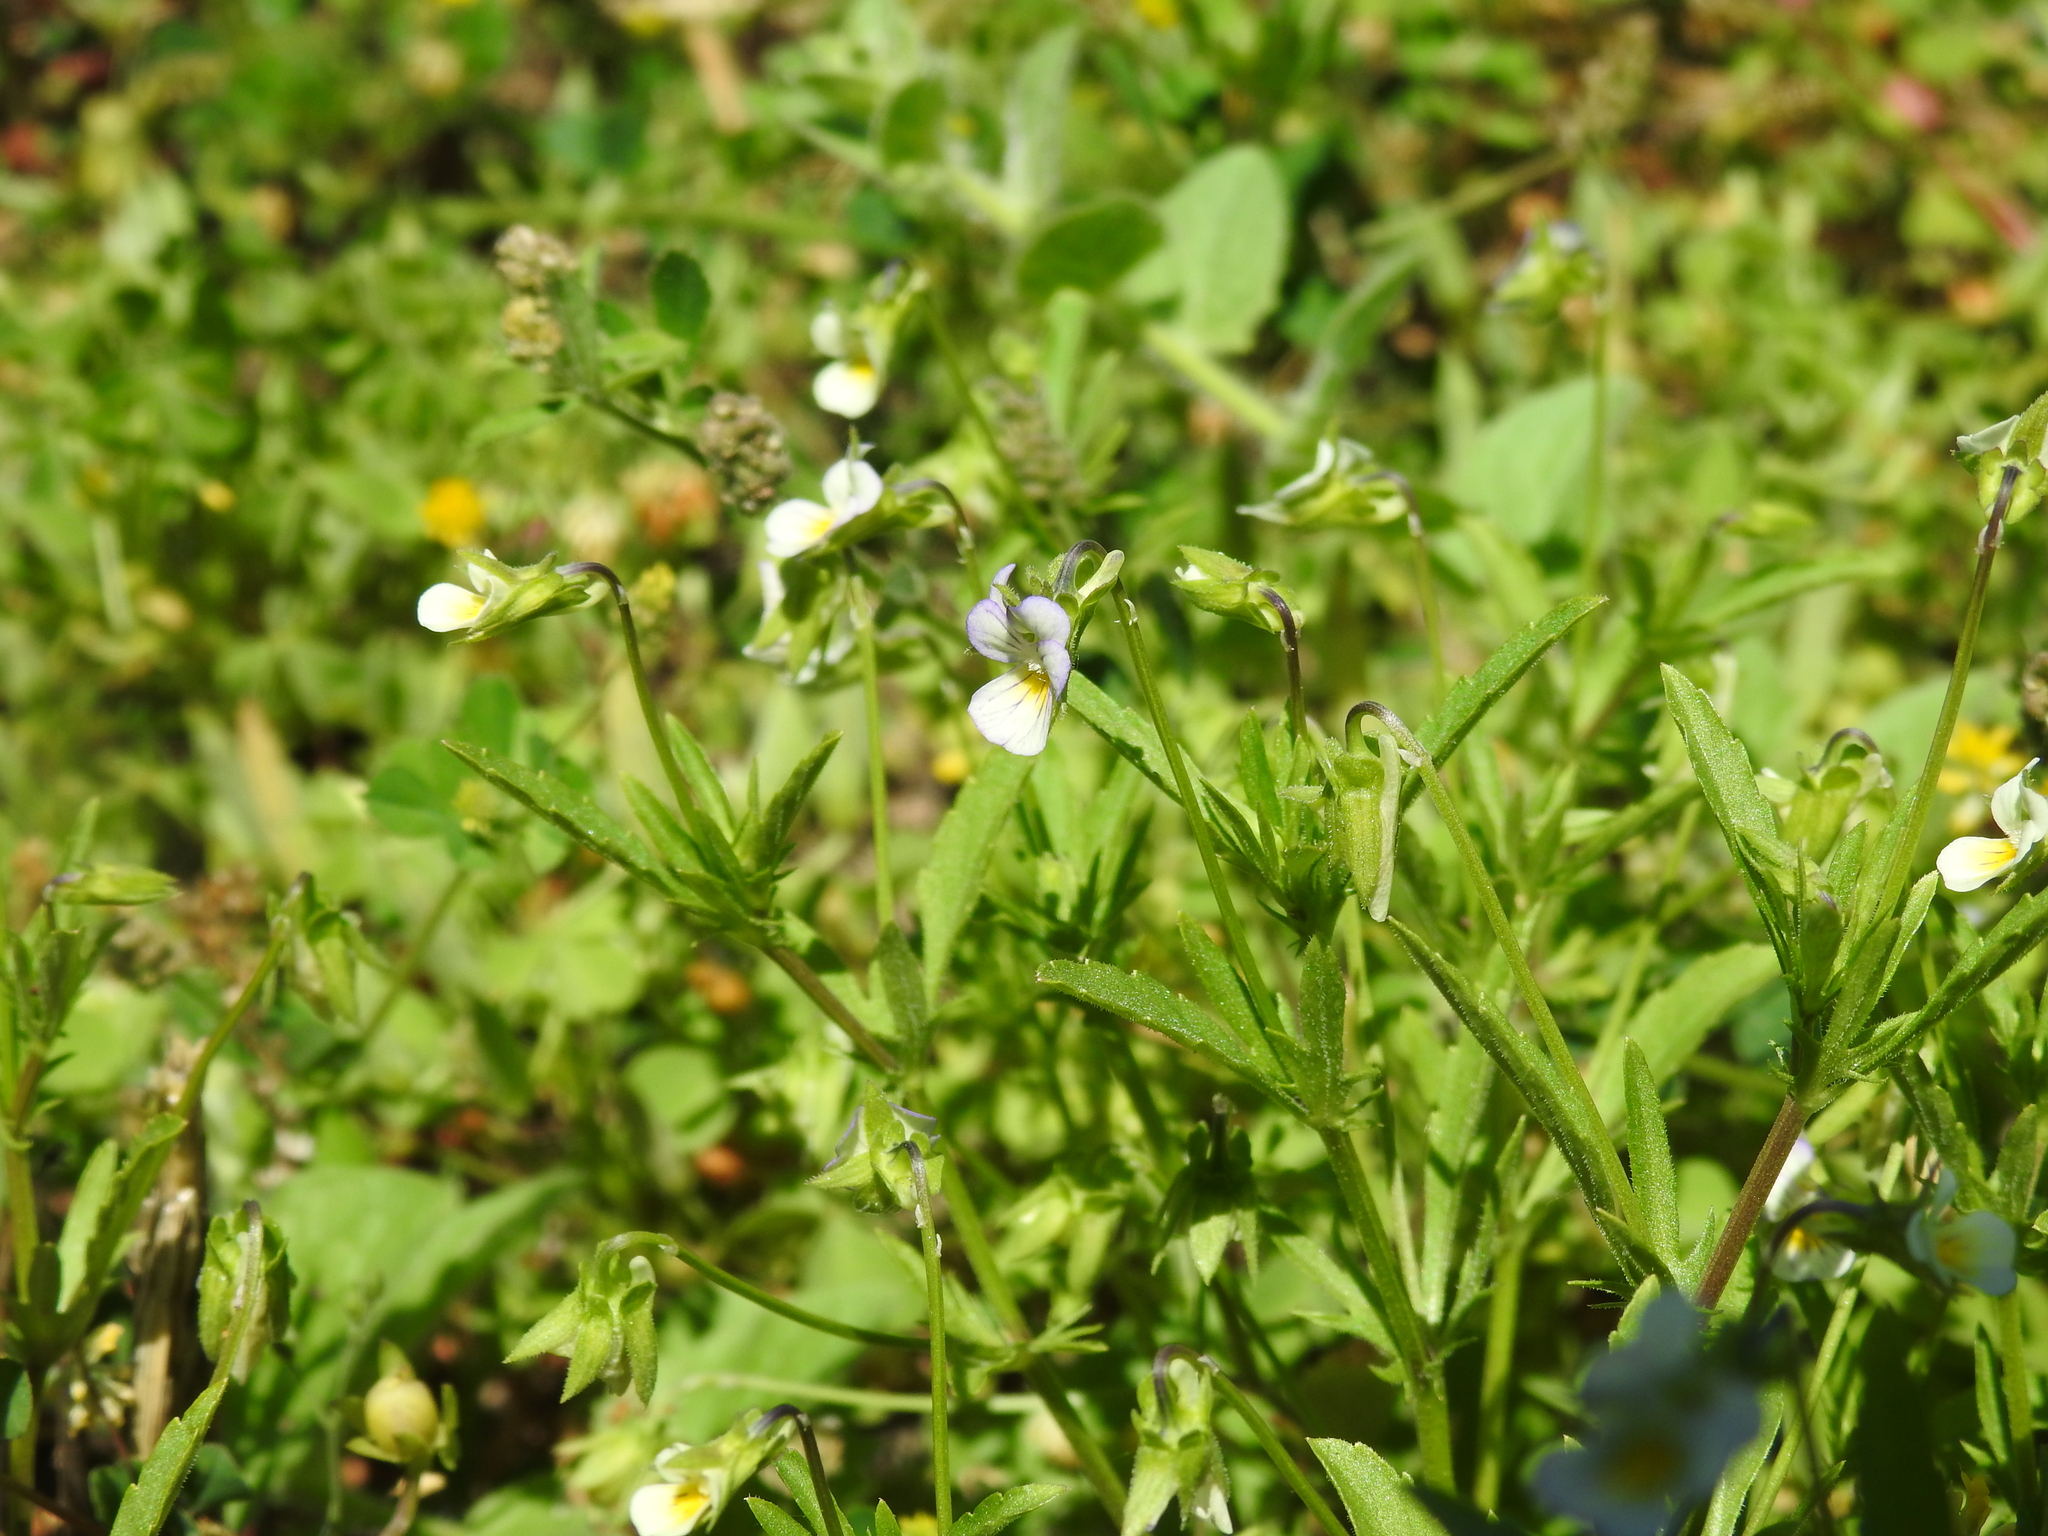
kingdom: Plantae
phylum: Tracheophyta
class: Magnoliopsida
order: Malpighiales
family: Violaceae
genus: Viola
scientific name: Viola arvensis
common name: Field pansy
